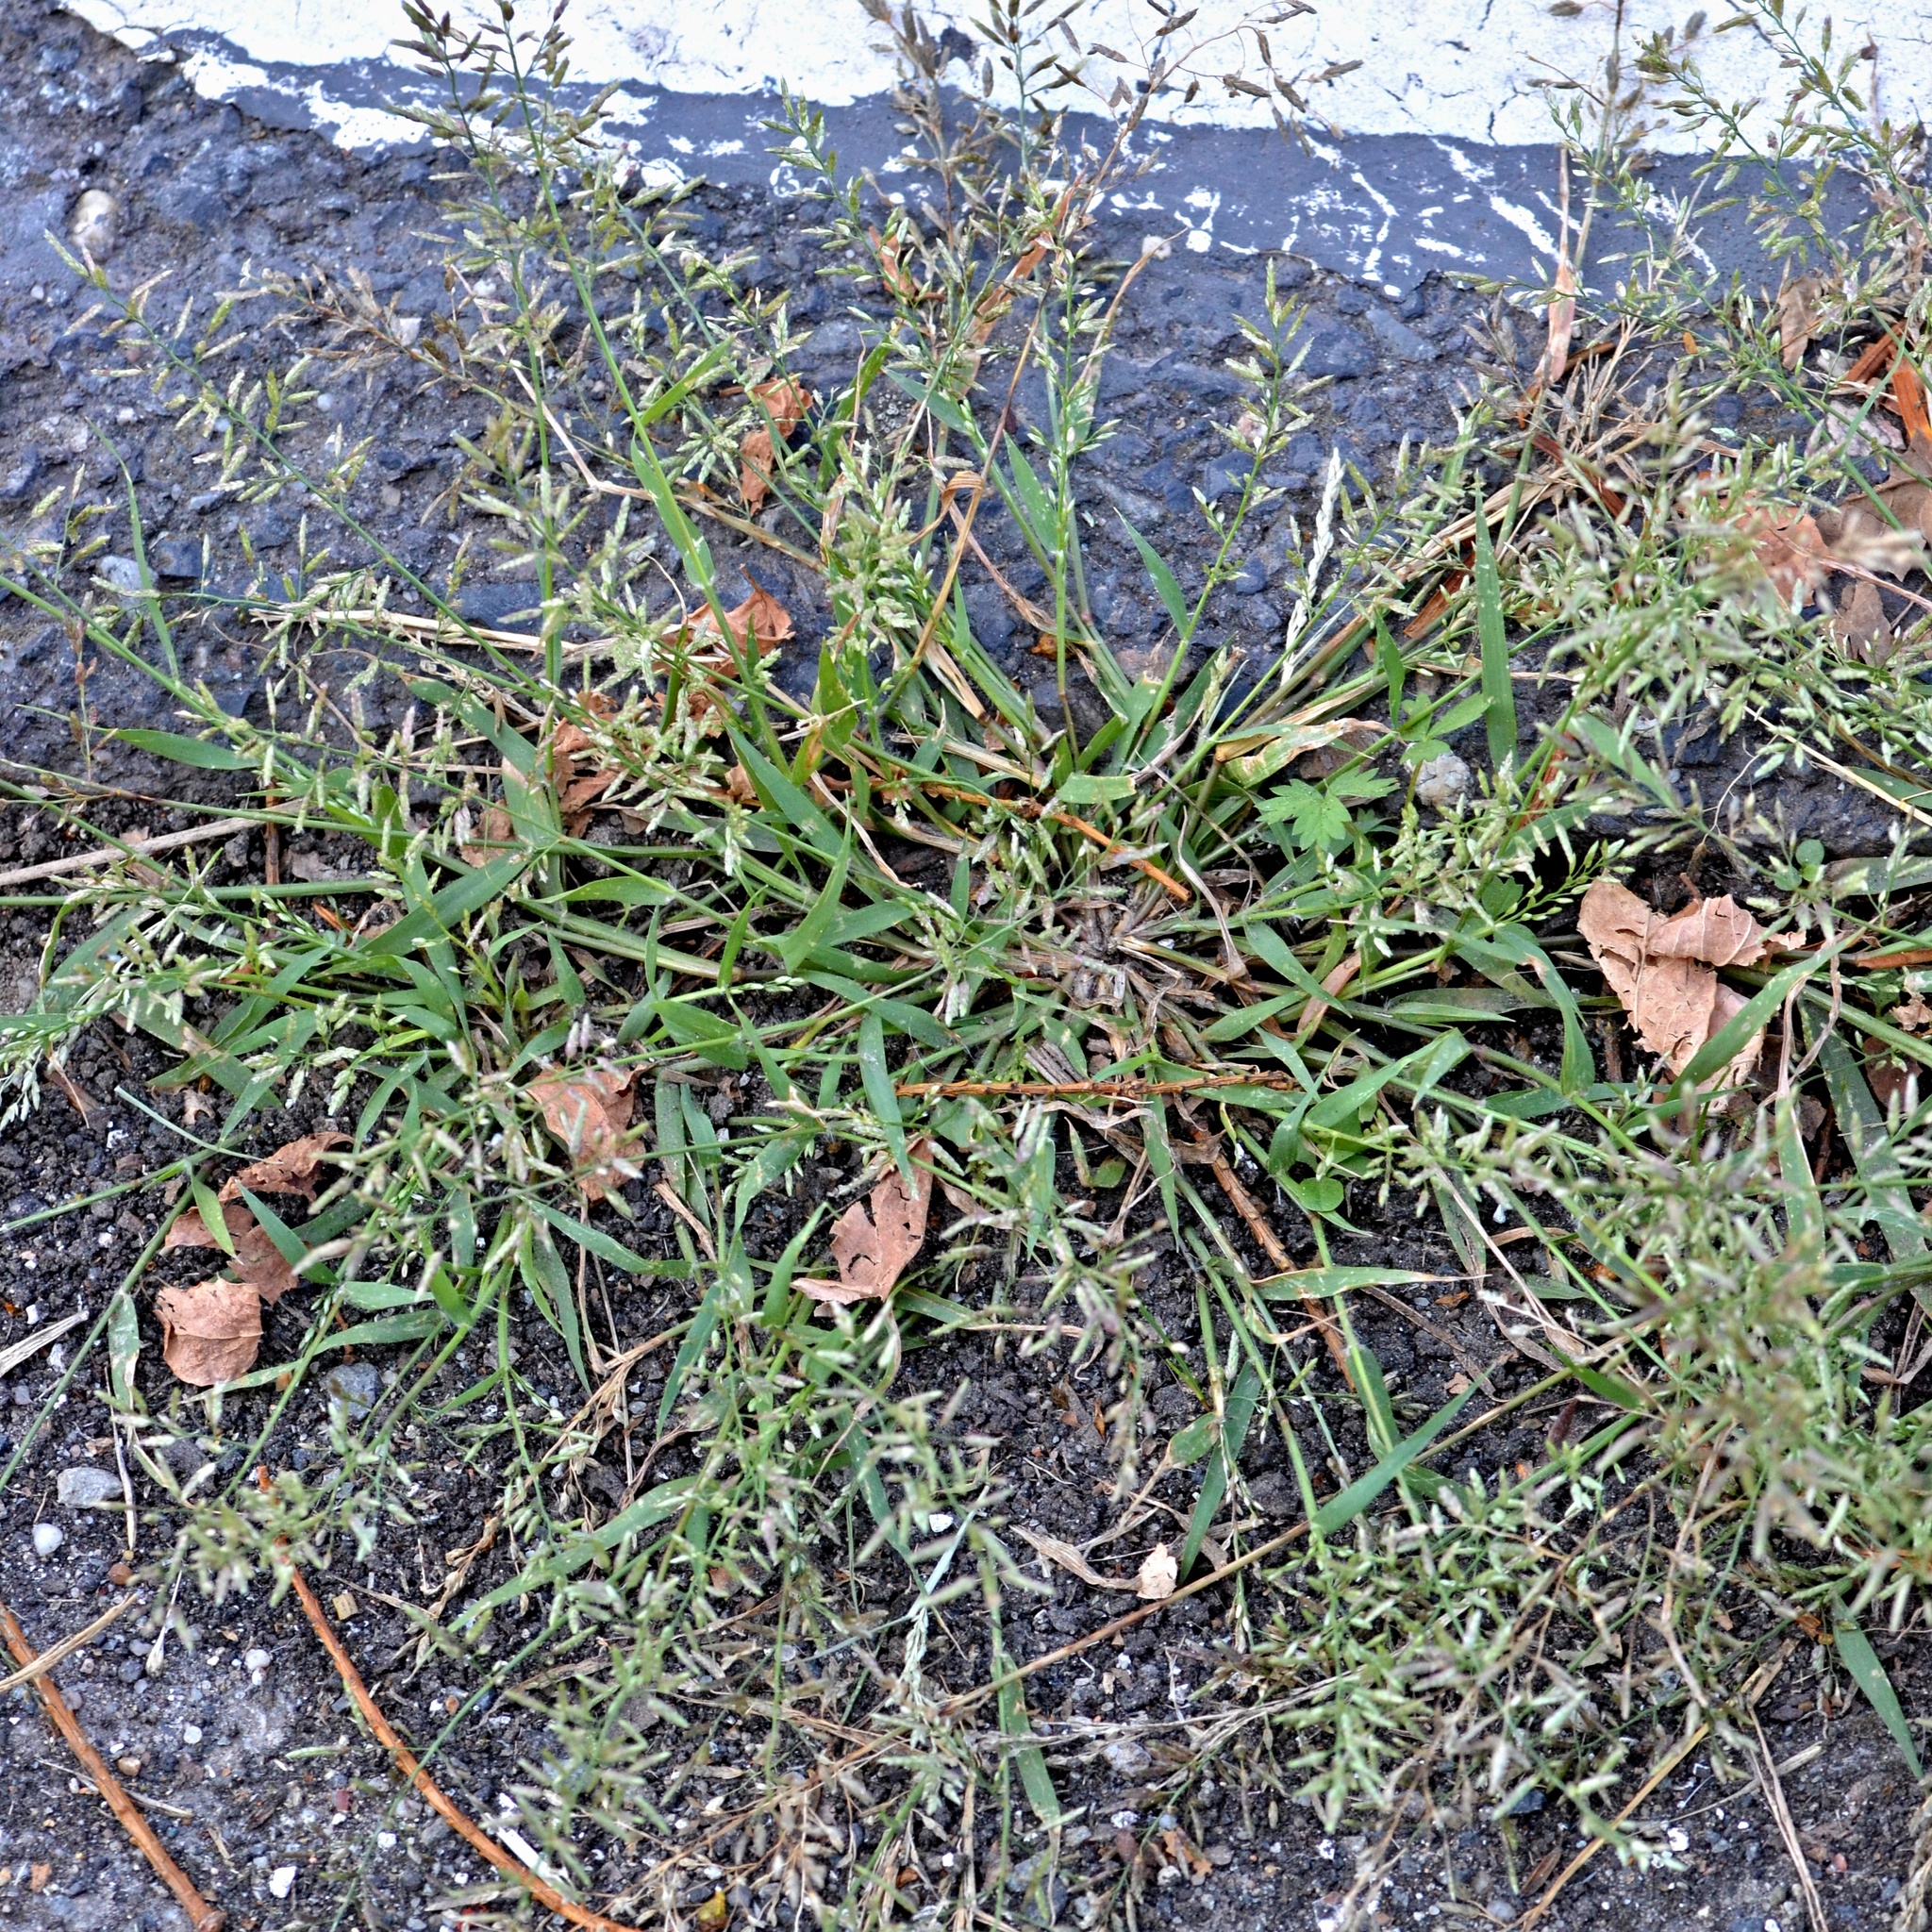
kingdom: Plantae
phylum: Tracheophyta
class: Liliopsida
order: Poales
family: Poaceae
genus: Eragrostis
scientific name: Eragrostis minor
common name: Small love-grass
